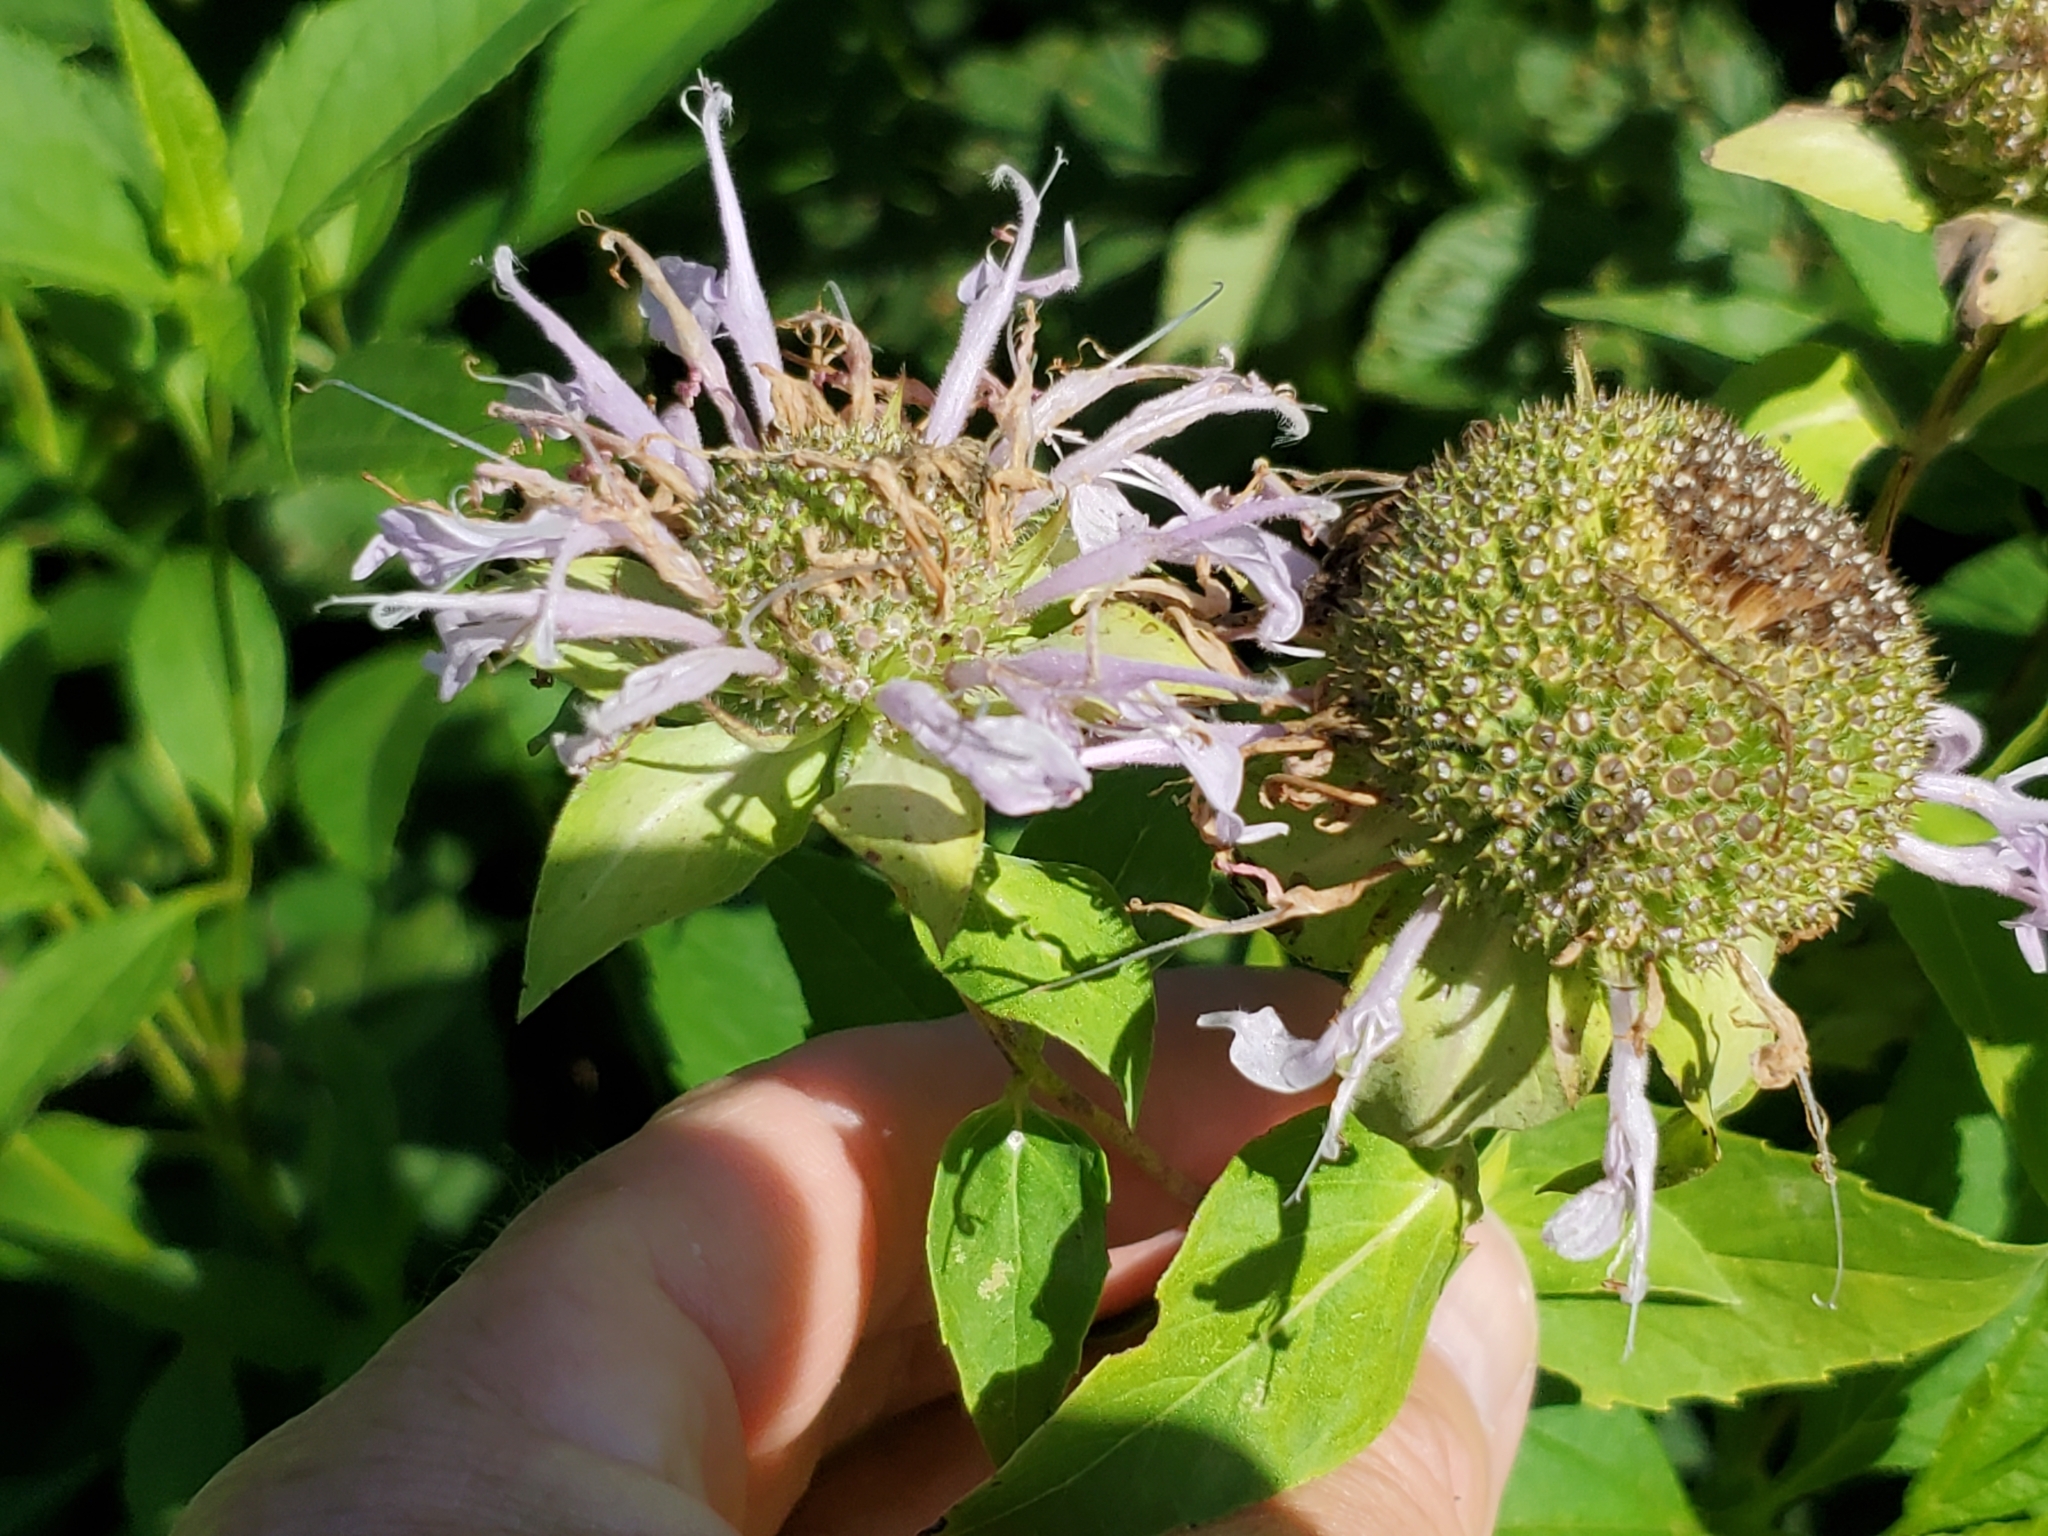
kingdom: Plantae
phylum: Tracheophyta
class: Magnoliopsida
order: Lamiales
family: Lamiaceae
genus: Monarda
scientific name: Monarda fistulosa
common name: Purple beebalm
